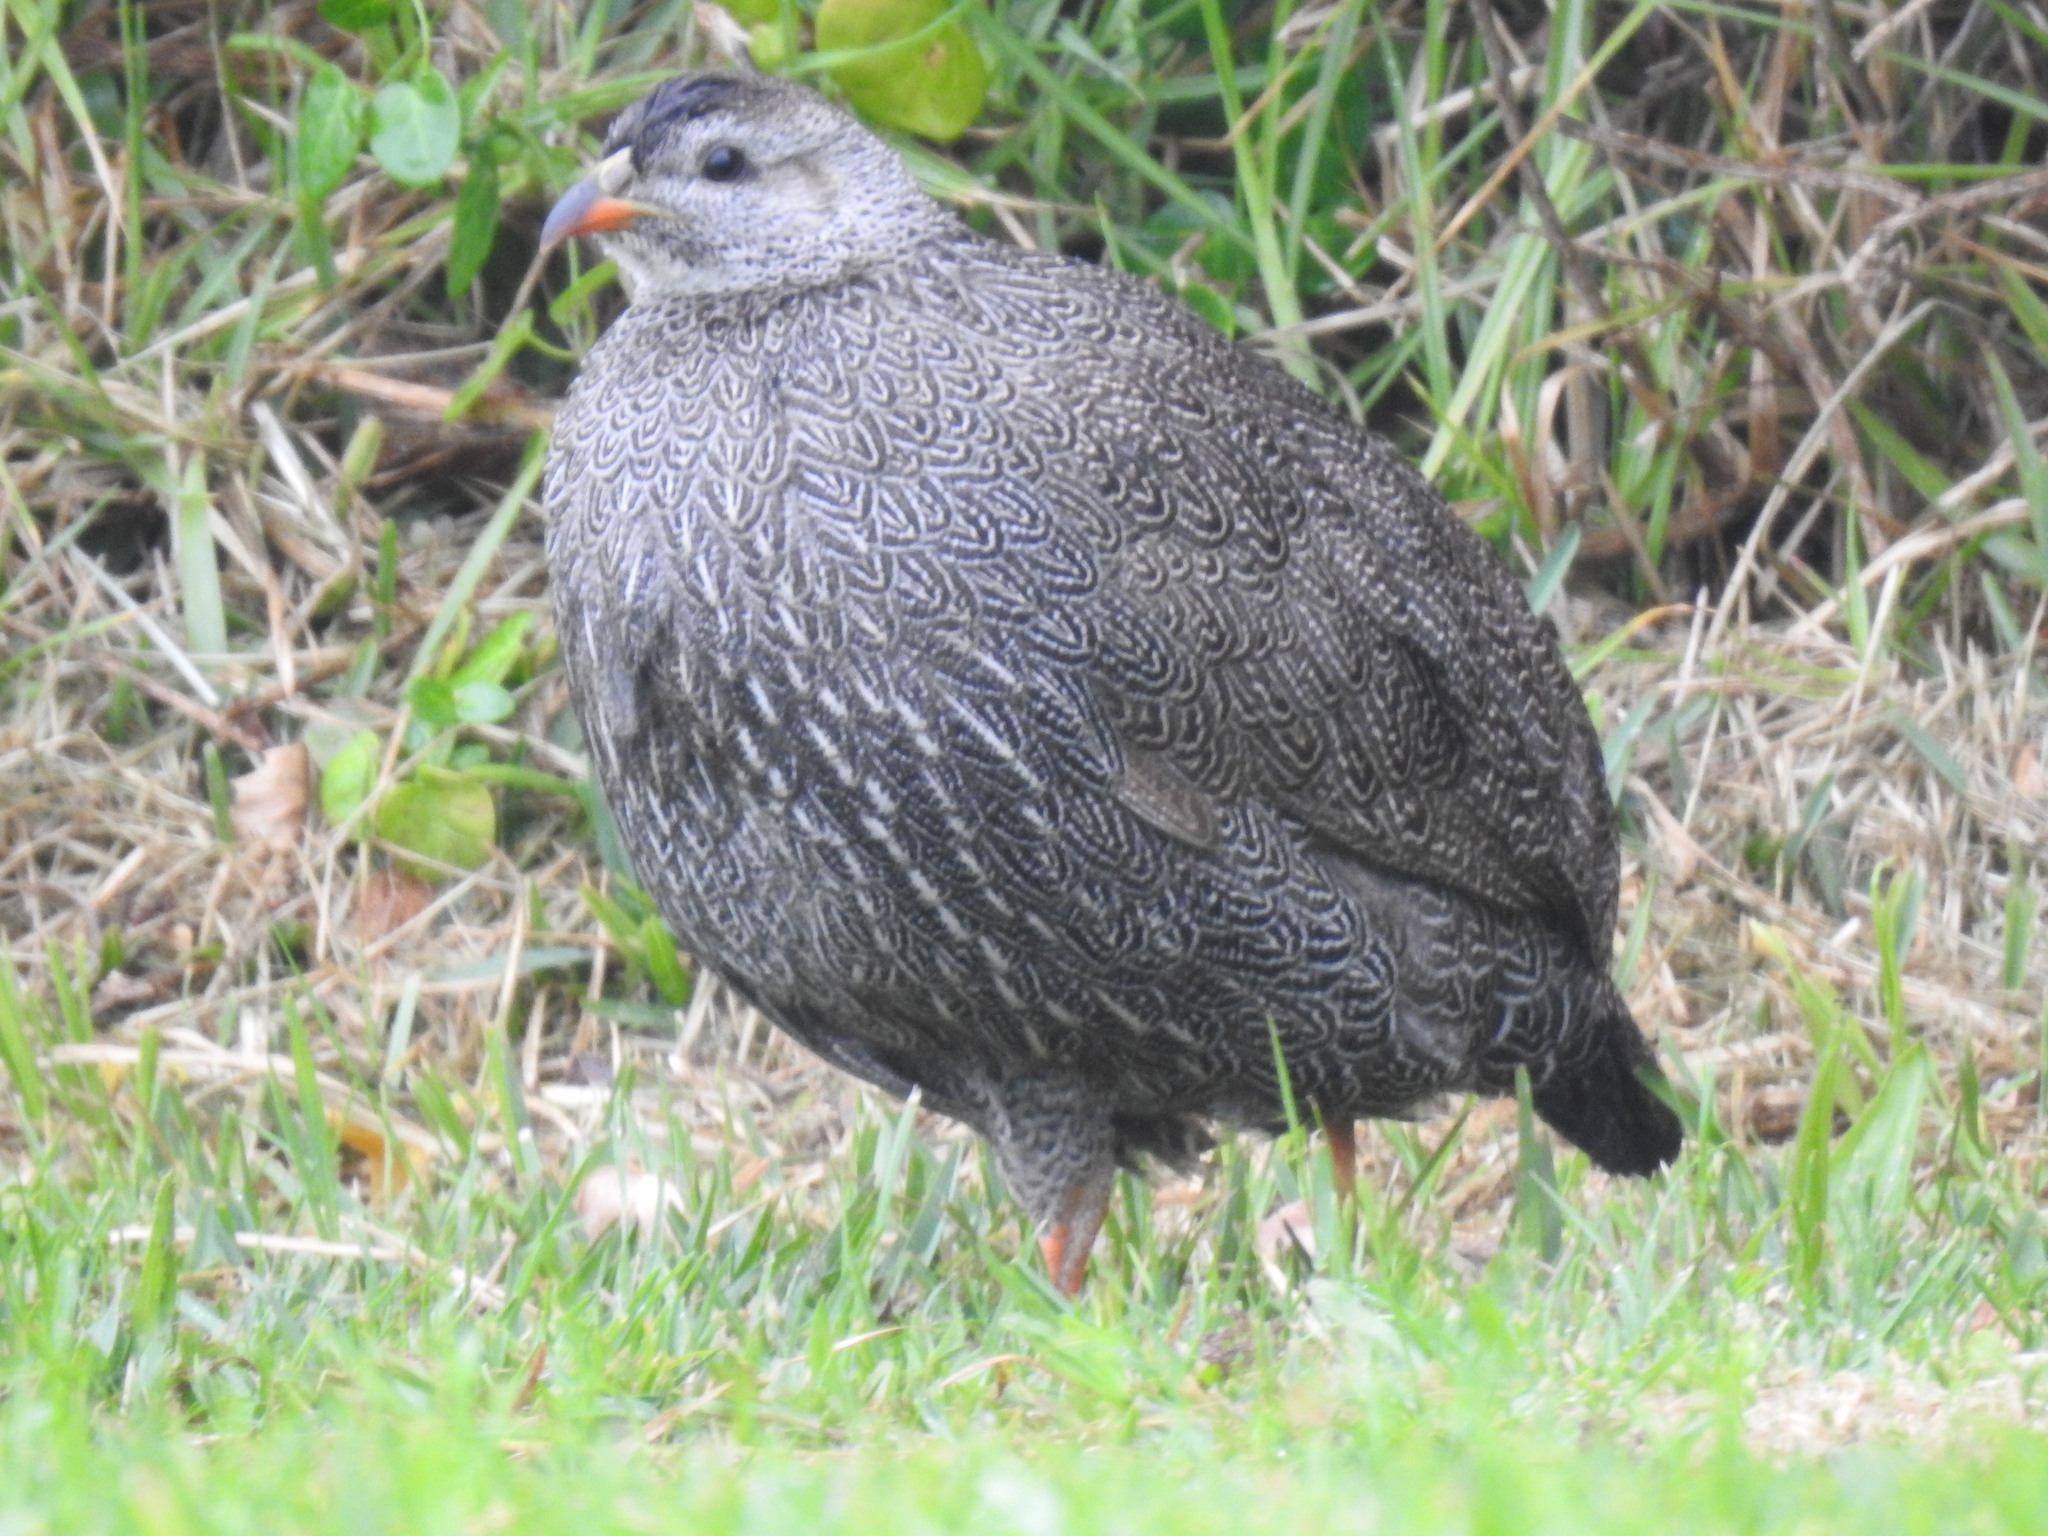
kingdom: Animalia
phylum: Chordata
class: Aves
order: Galliformes
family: Phasianidae
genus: Pternistis
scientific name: Pternistis capensis
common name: Cape spurfowl
